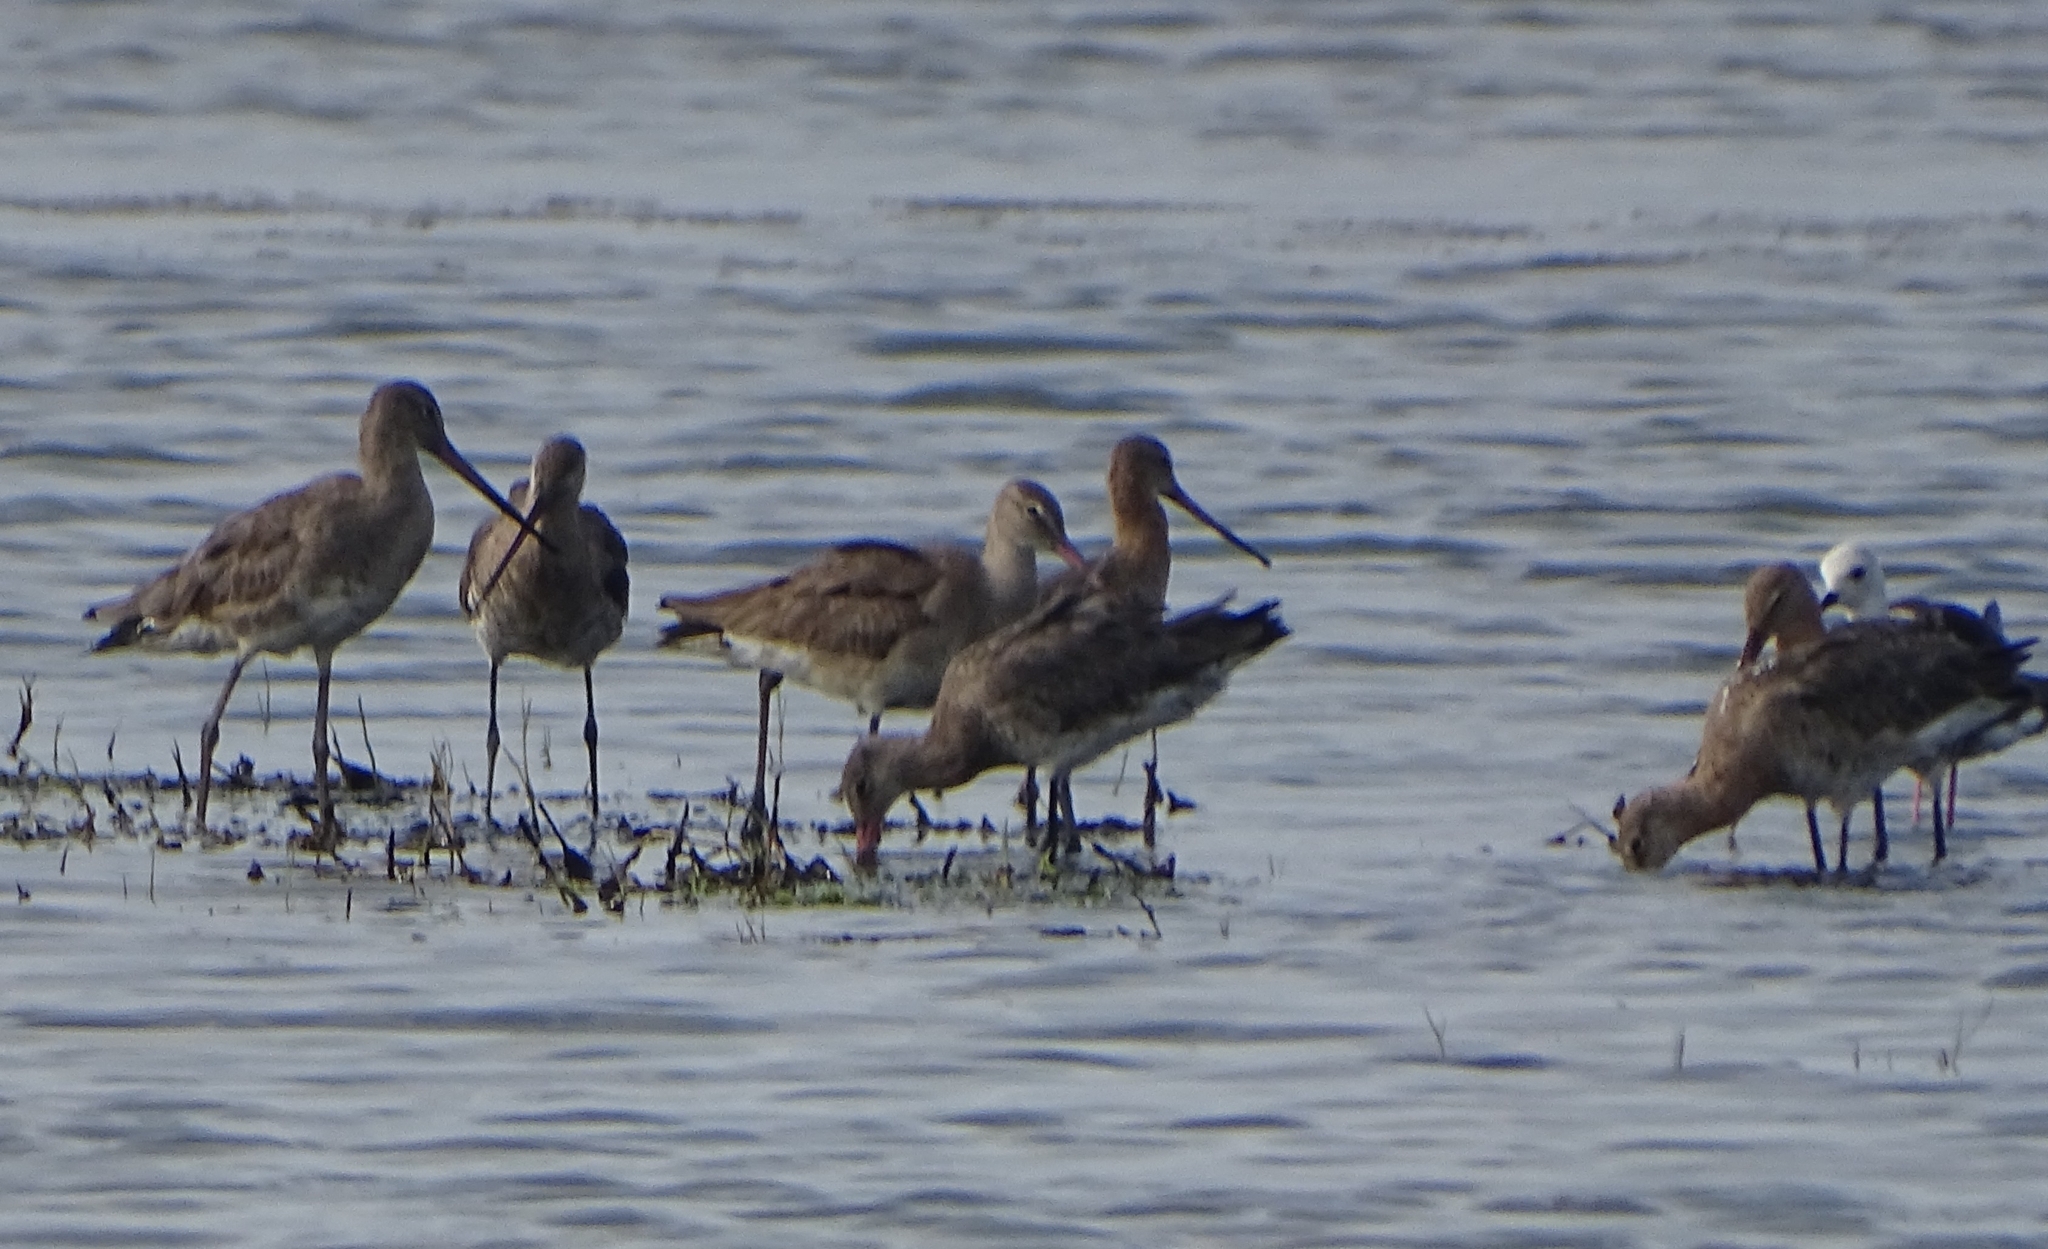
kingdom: Animalia
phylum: Chordata
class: Aves
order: Charadriiformes
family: Scolopacidae
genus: Limosa
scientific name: Limosa limosa
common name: Black-tailed godwit
